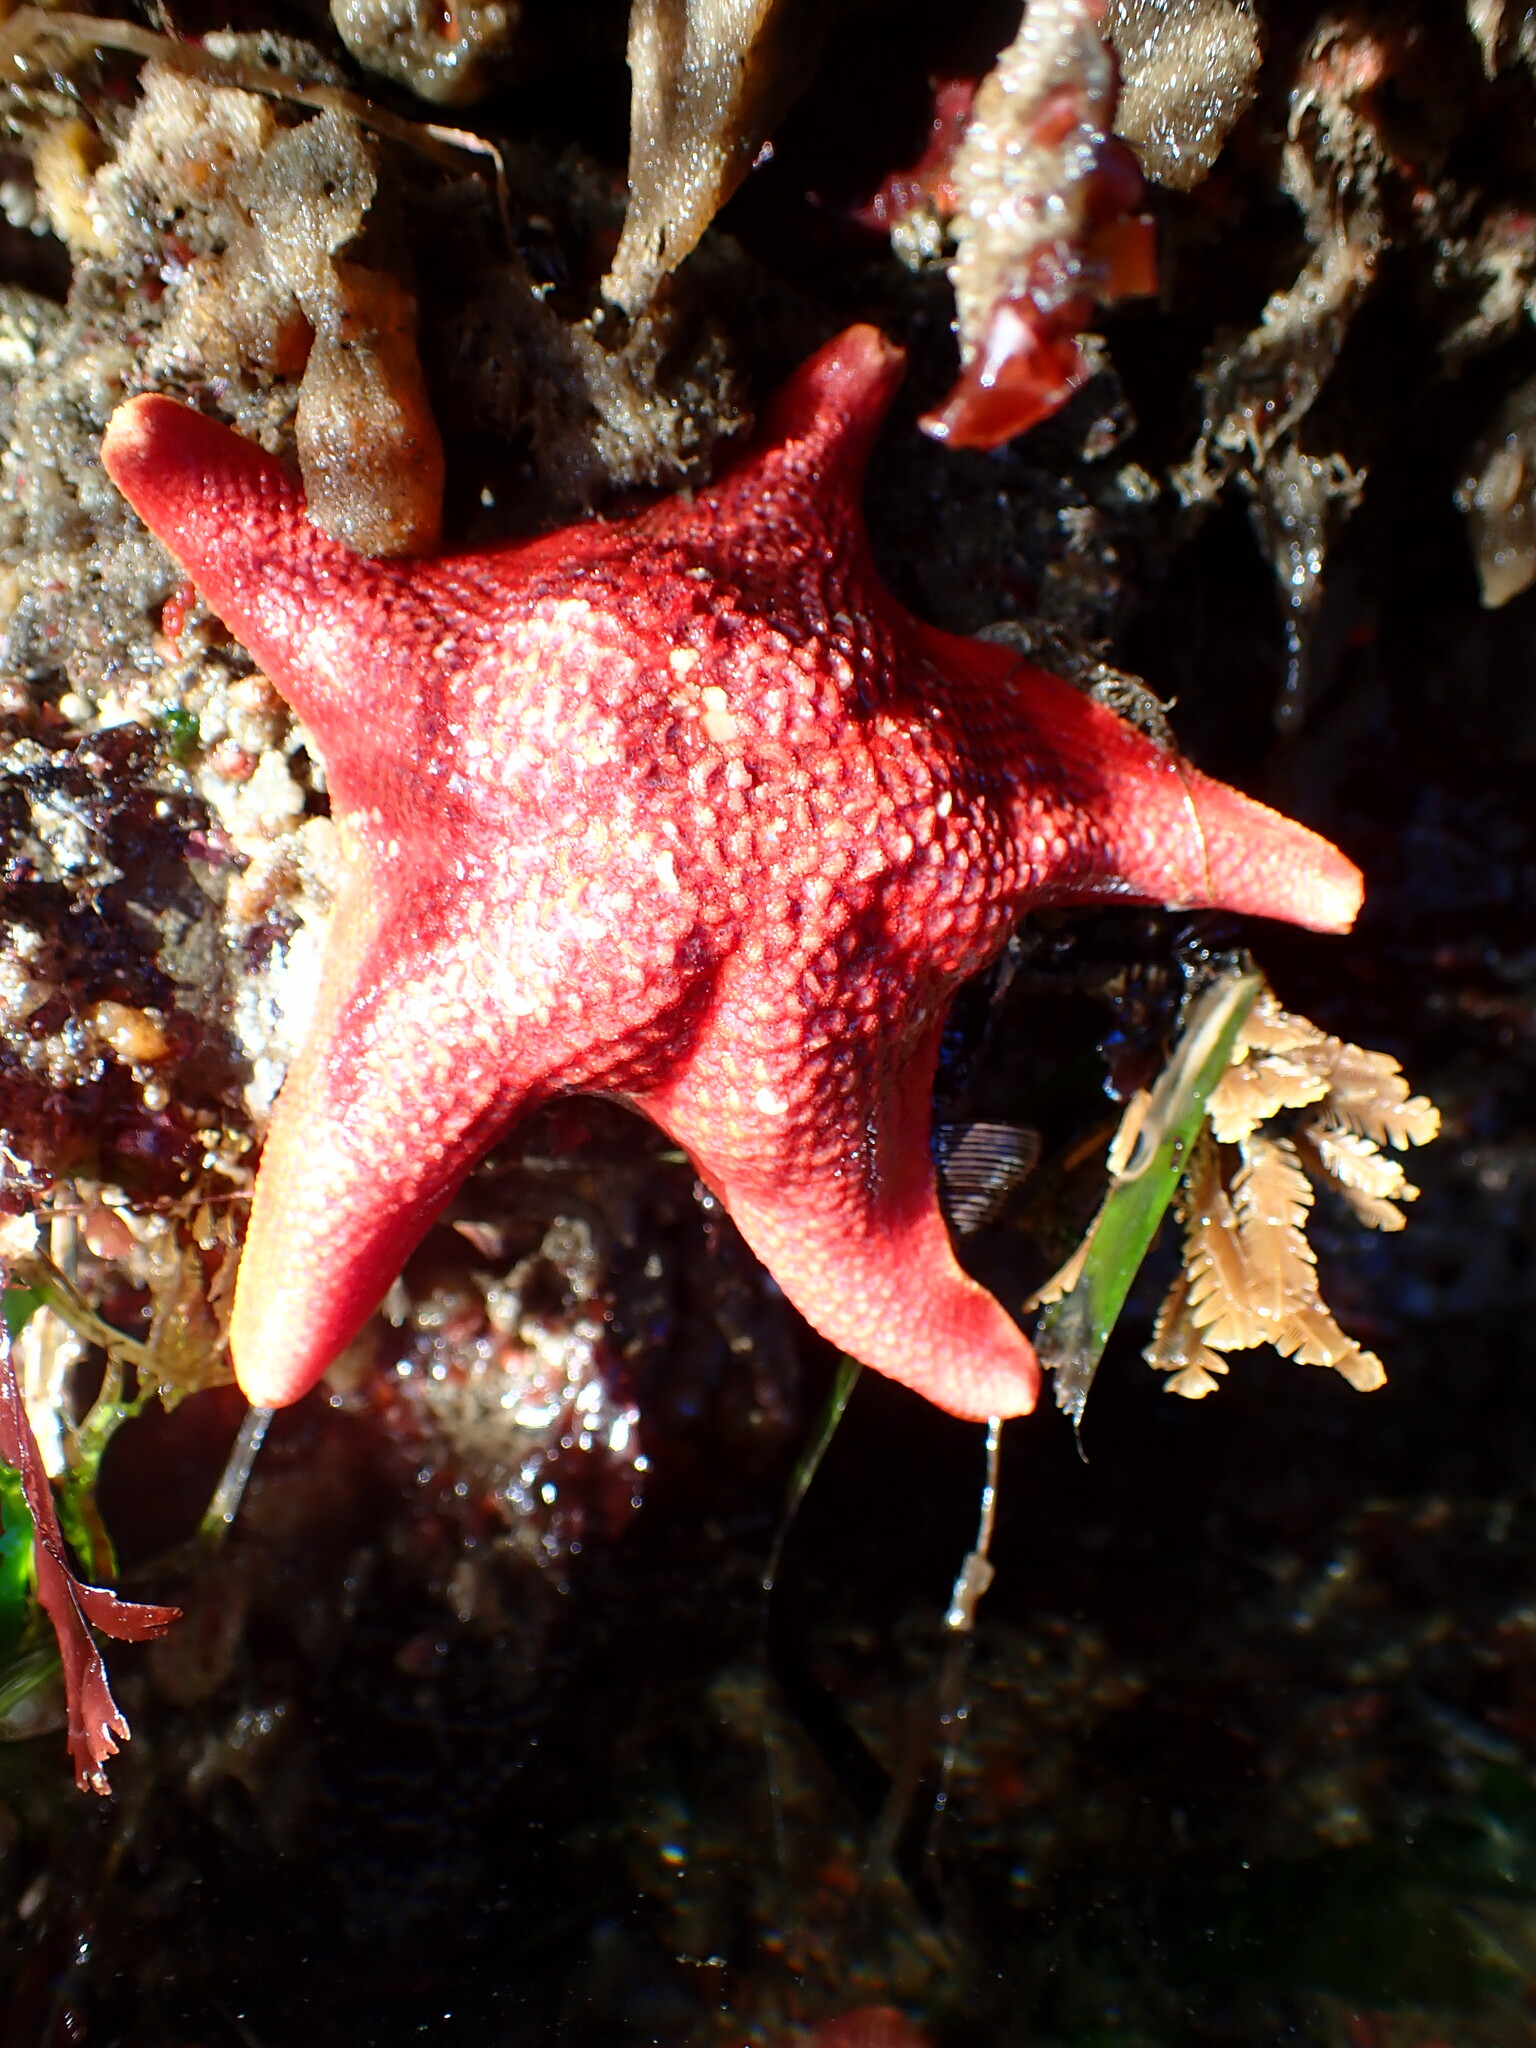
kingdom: Animalia
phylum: Echinodermata
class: Asteroidea
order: Valvatida
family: Asterinidae
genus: Patiria
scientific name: Patiria miniata
